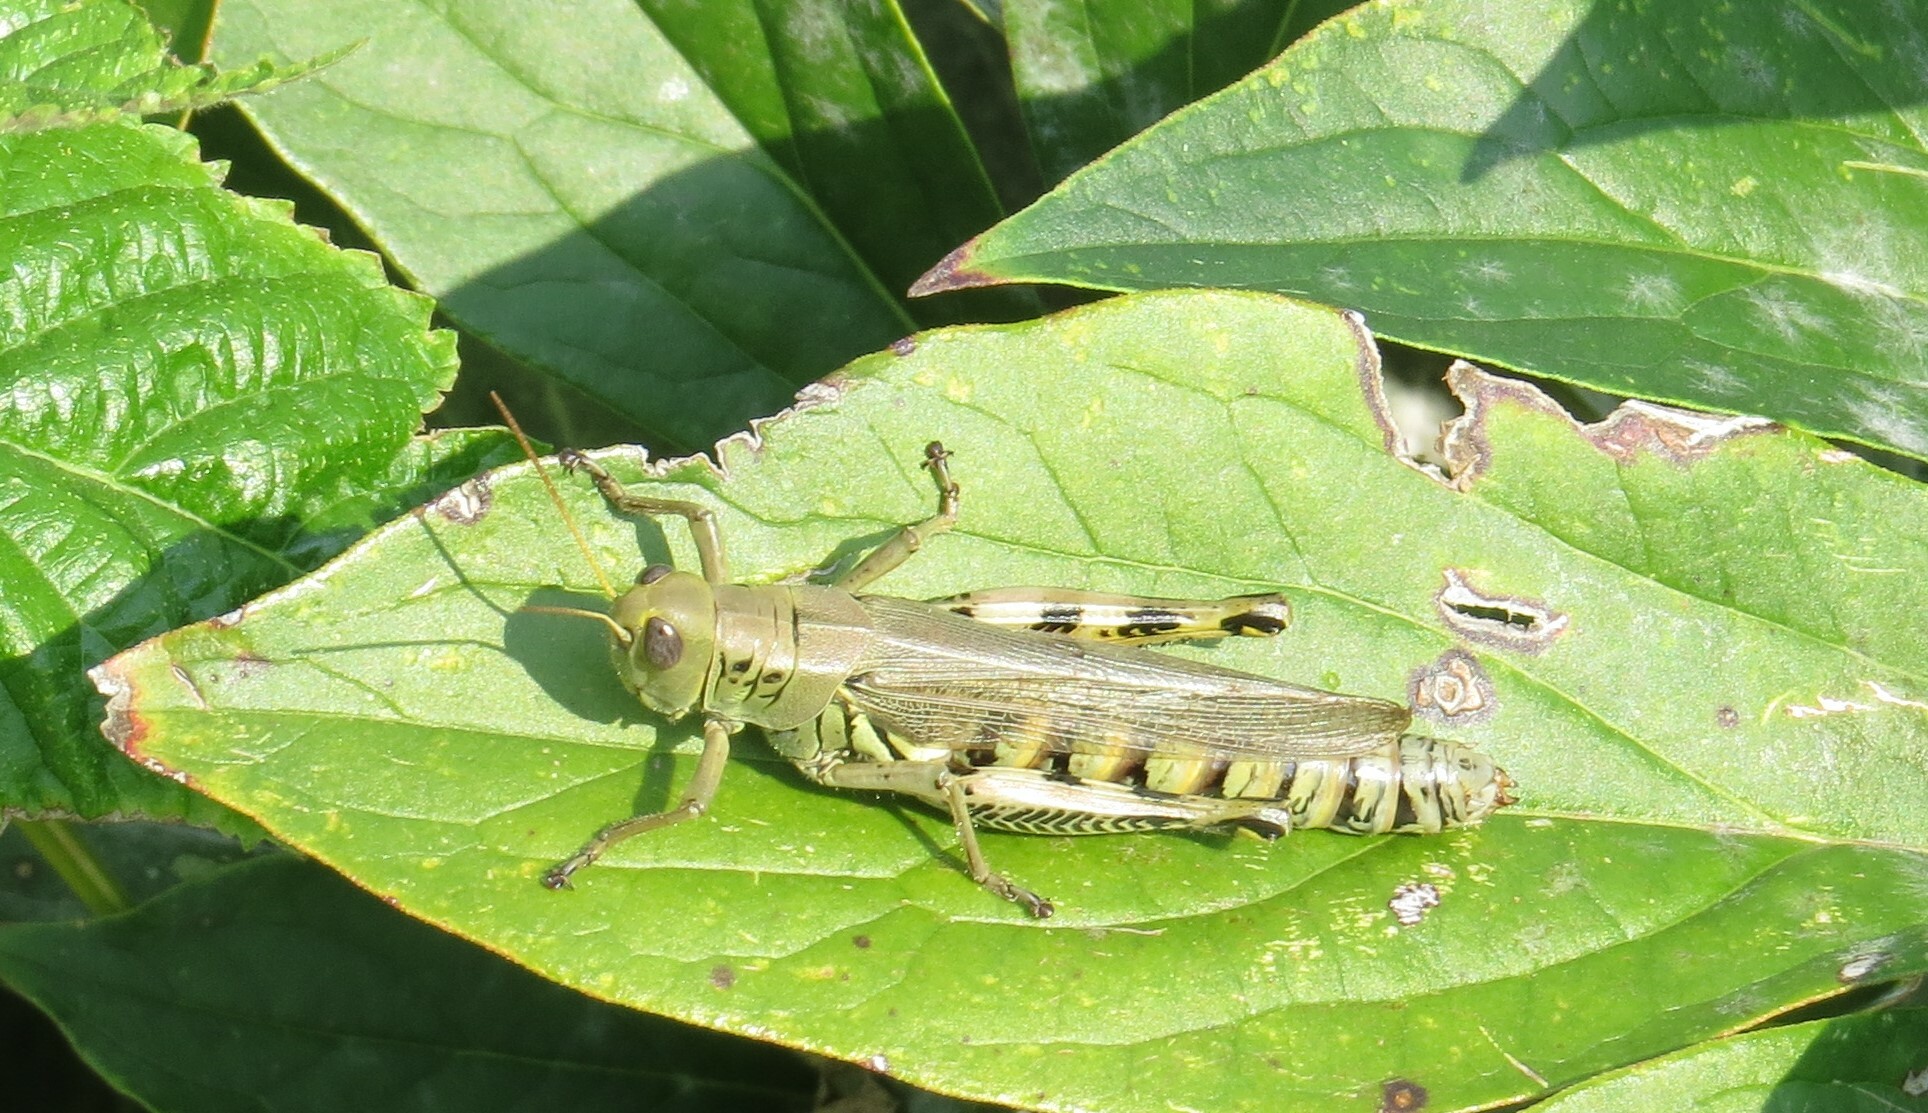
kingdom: Animalia
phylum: Arthropoda
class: Insecta
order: Orthoptera
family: Acrididae
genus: Melanoplus
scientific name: Melanoplus differentialis
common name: Differential grasshopper
